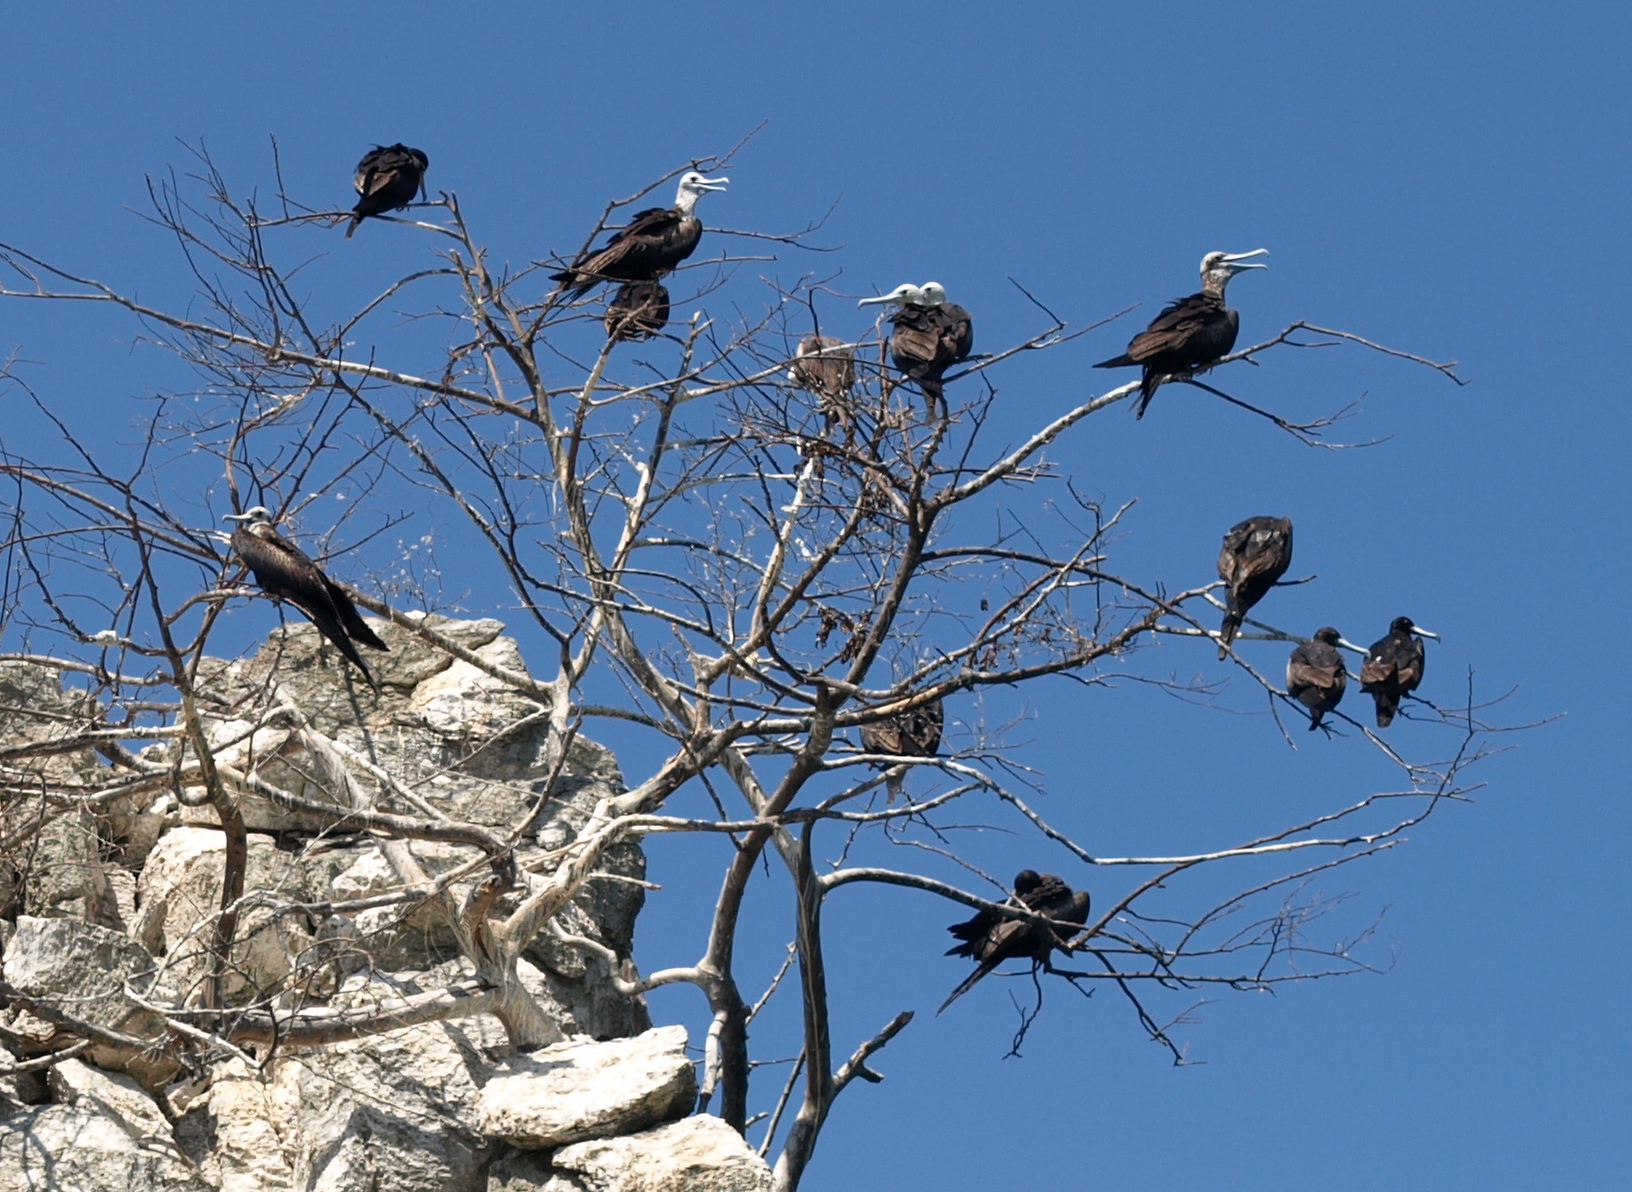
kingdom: Animalia
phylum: Chordata
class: Aves
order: Suliformes
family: Fregatidae
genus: Fregata
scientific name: Fregata magnificens
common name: Magnificent frigatebird
